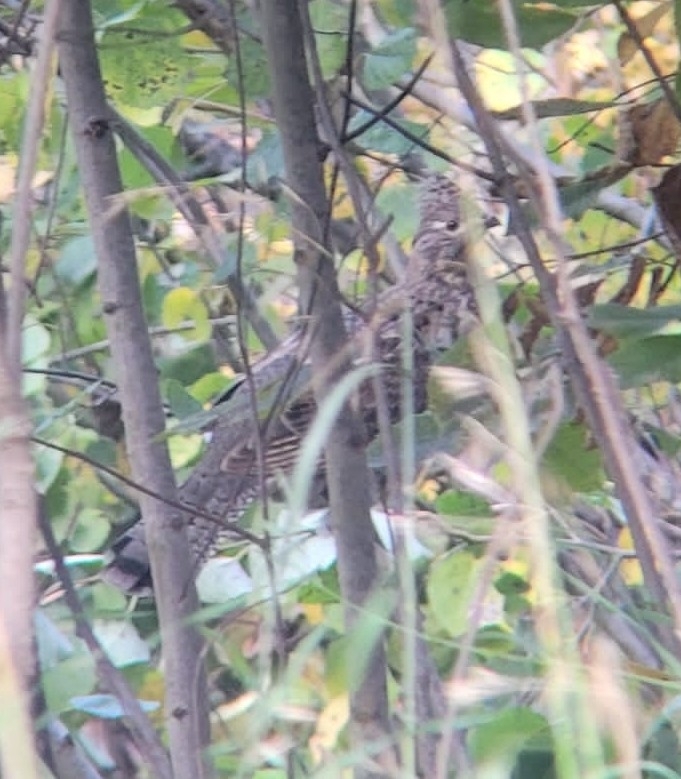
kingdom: Animalia
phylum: Chordata
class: Aves
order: Galliformes
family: Phasianidae
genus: Bonasa
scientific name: Bonasa umbellus
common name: Ruffed grouse
